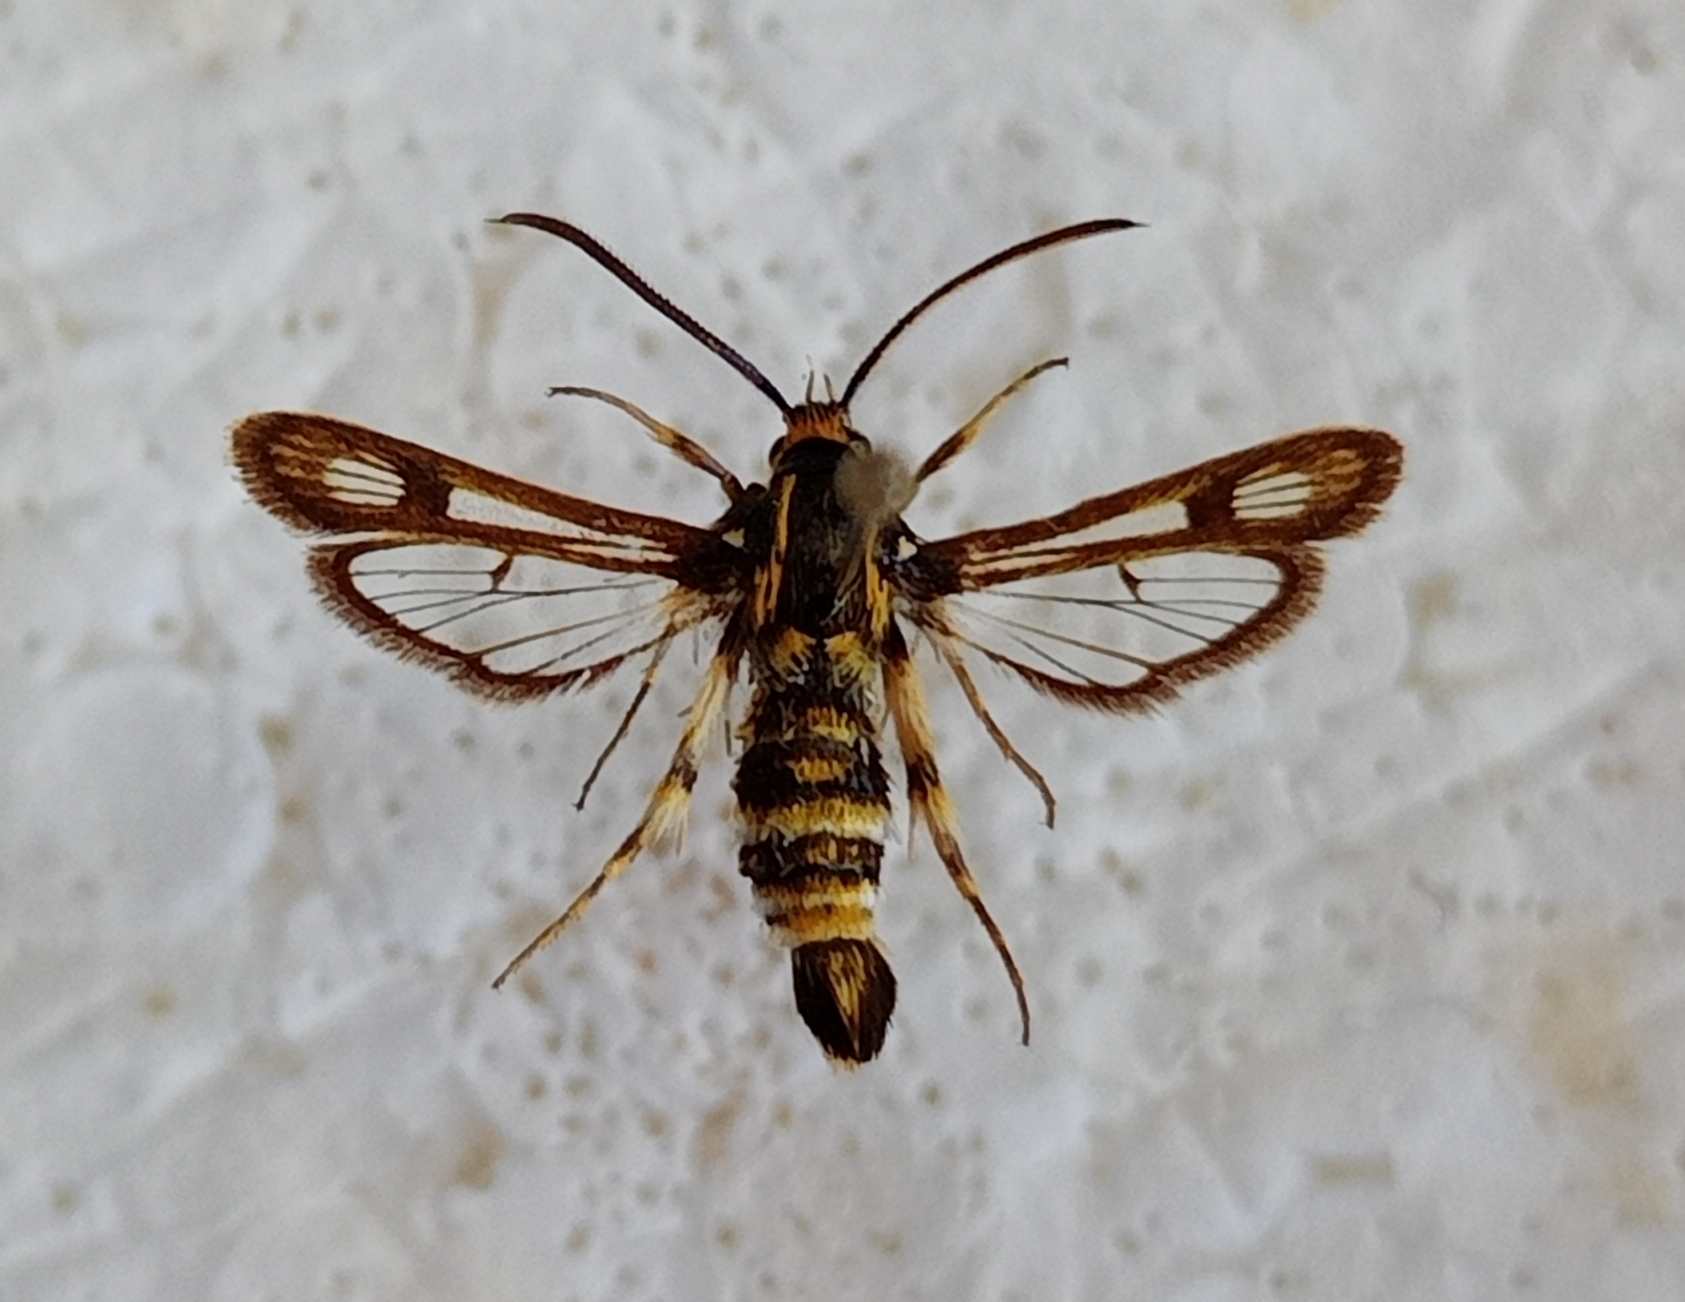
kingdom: Animalia
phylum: Arthropoda
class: Insecta
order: Lepidoptera
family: Sesiidae
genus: Chamaesphecia
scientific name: Chamaesphecia annellata
